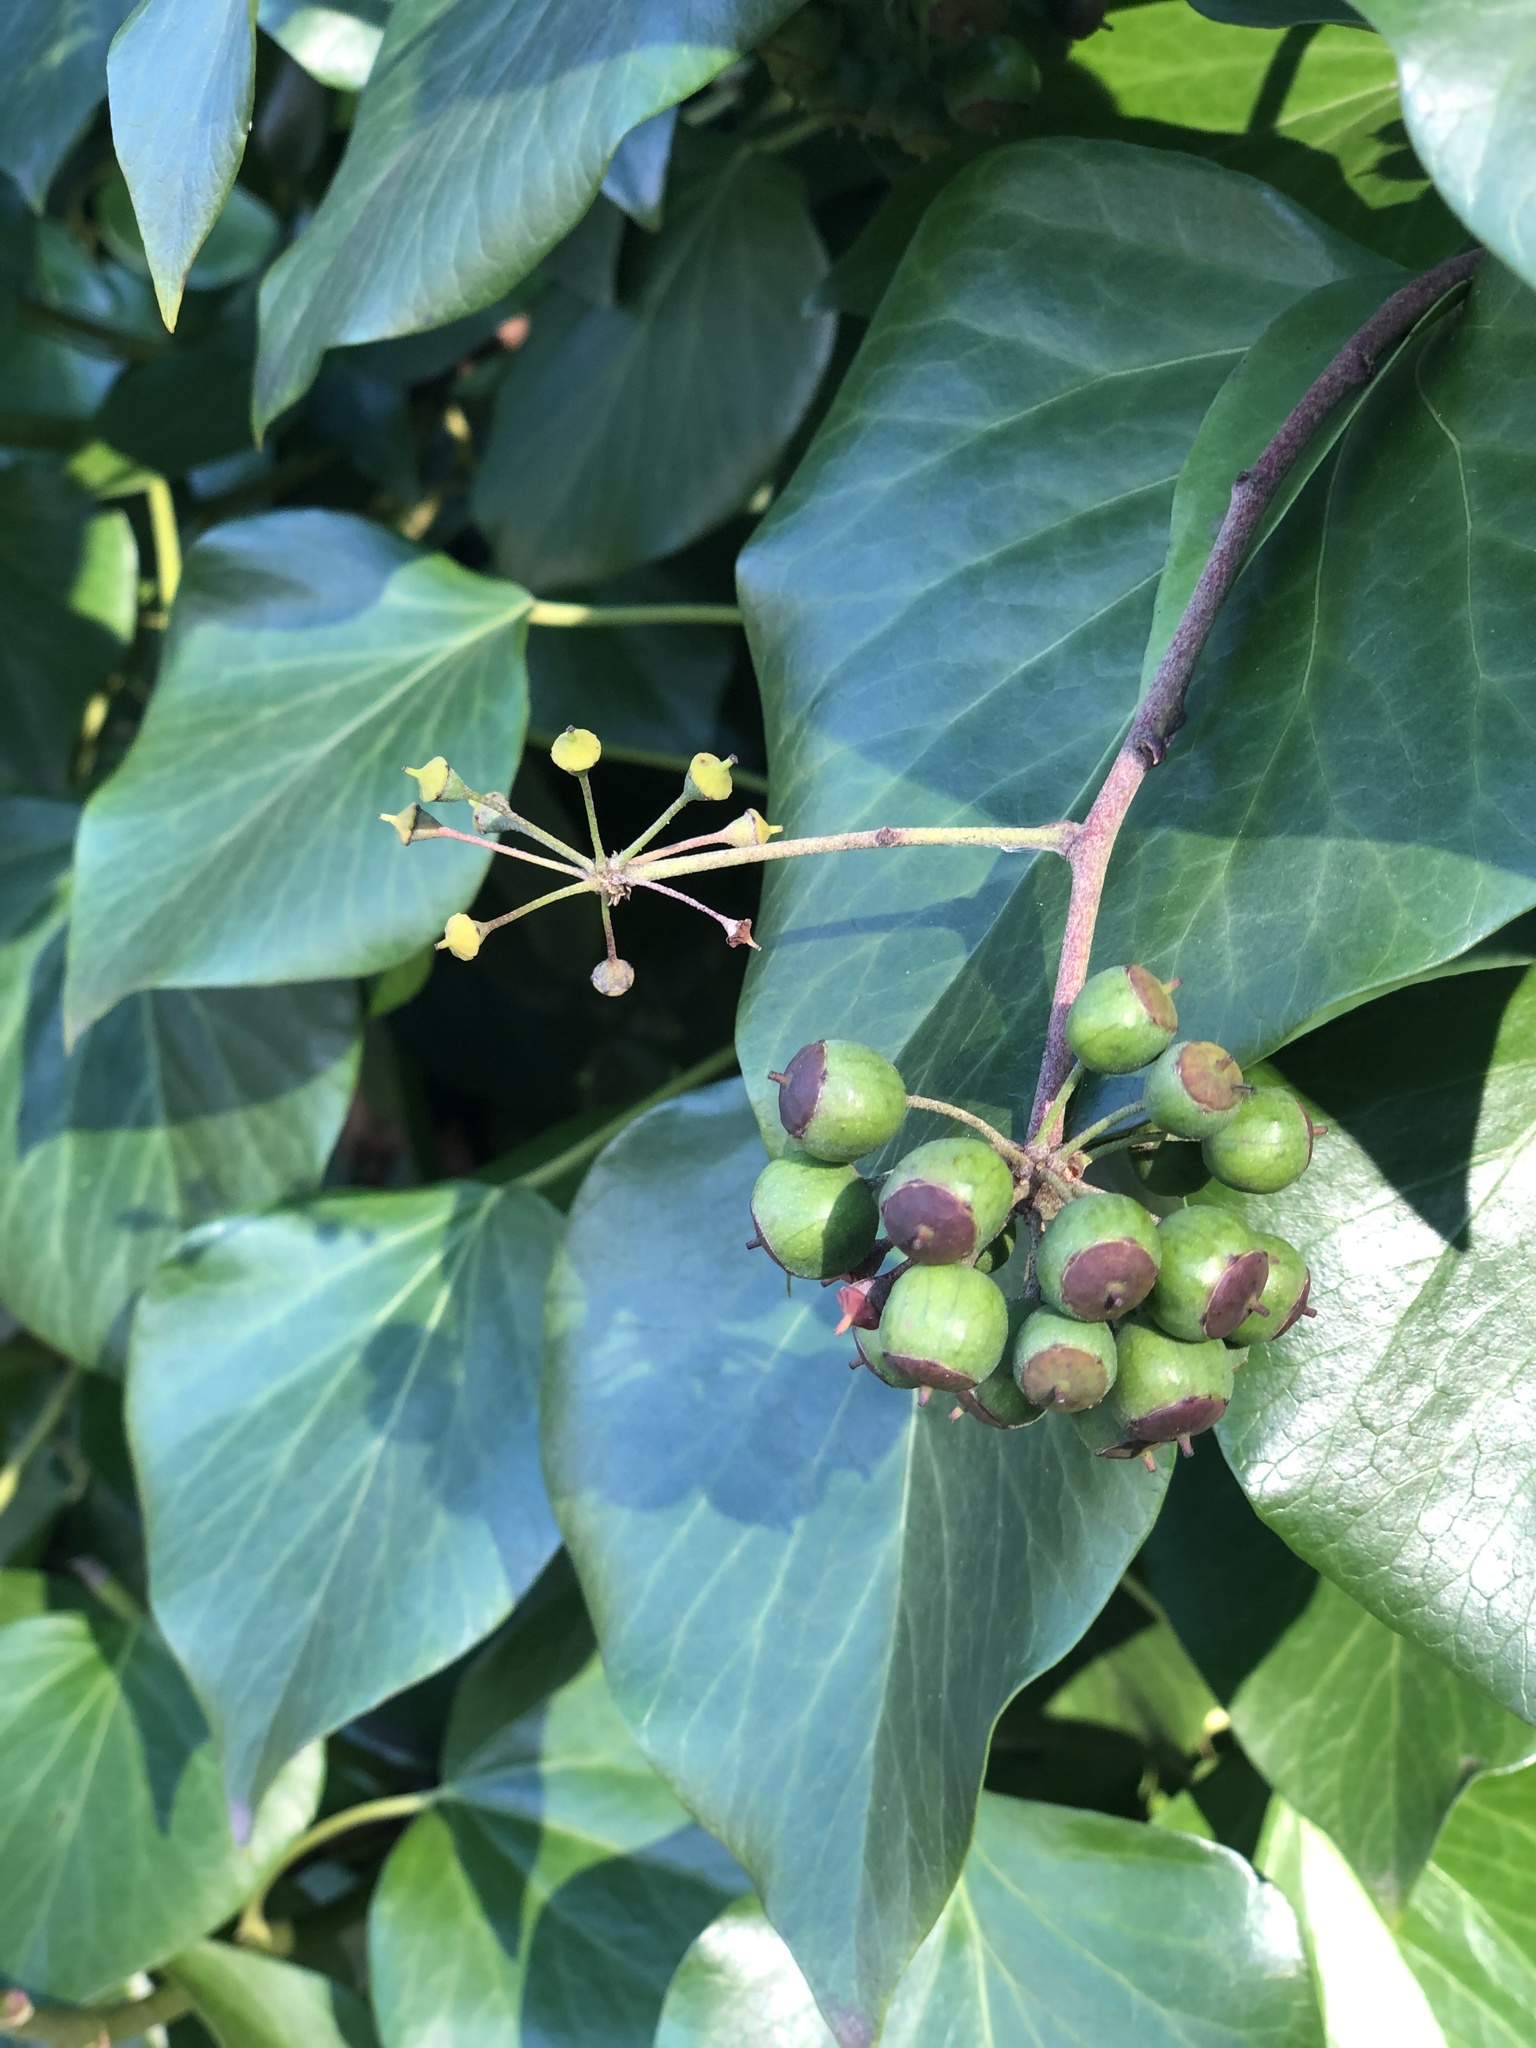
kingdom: Plantae
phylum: Tracheophyta
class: Magnoliopsida
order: Apiales
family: Araliaceae
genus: Hedera
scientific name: Hedera helix
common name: Ivy
